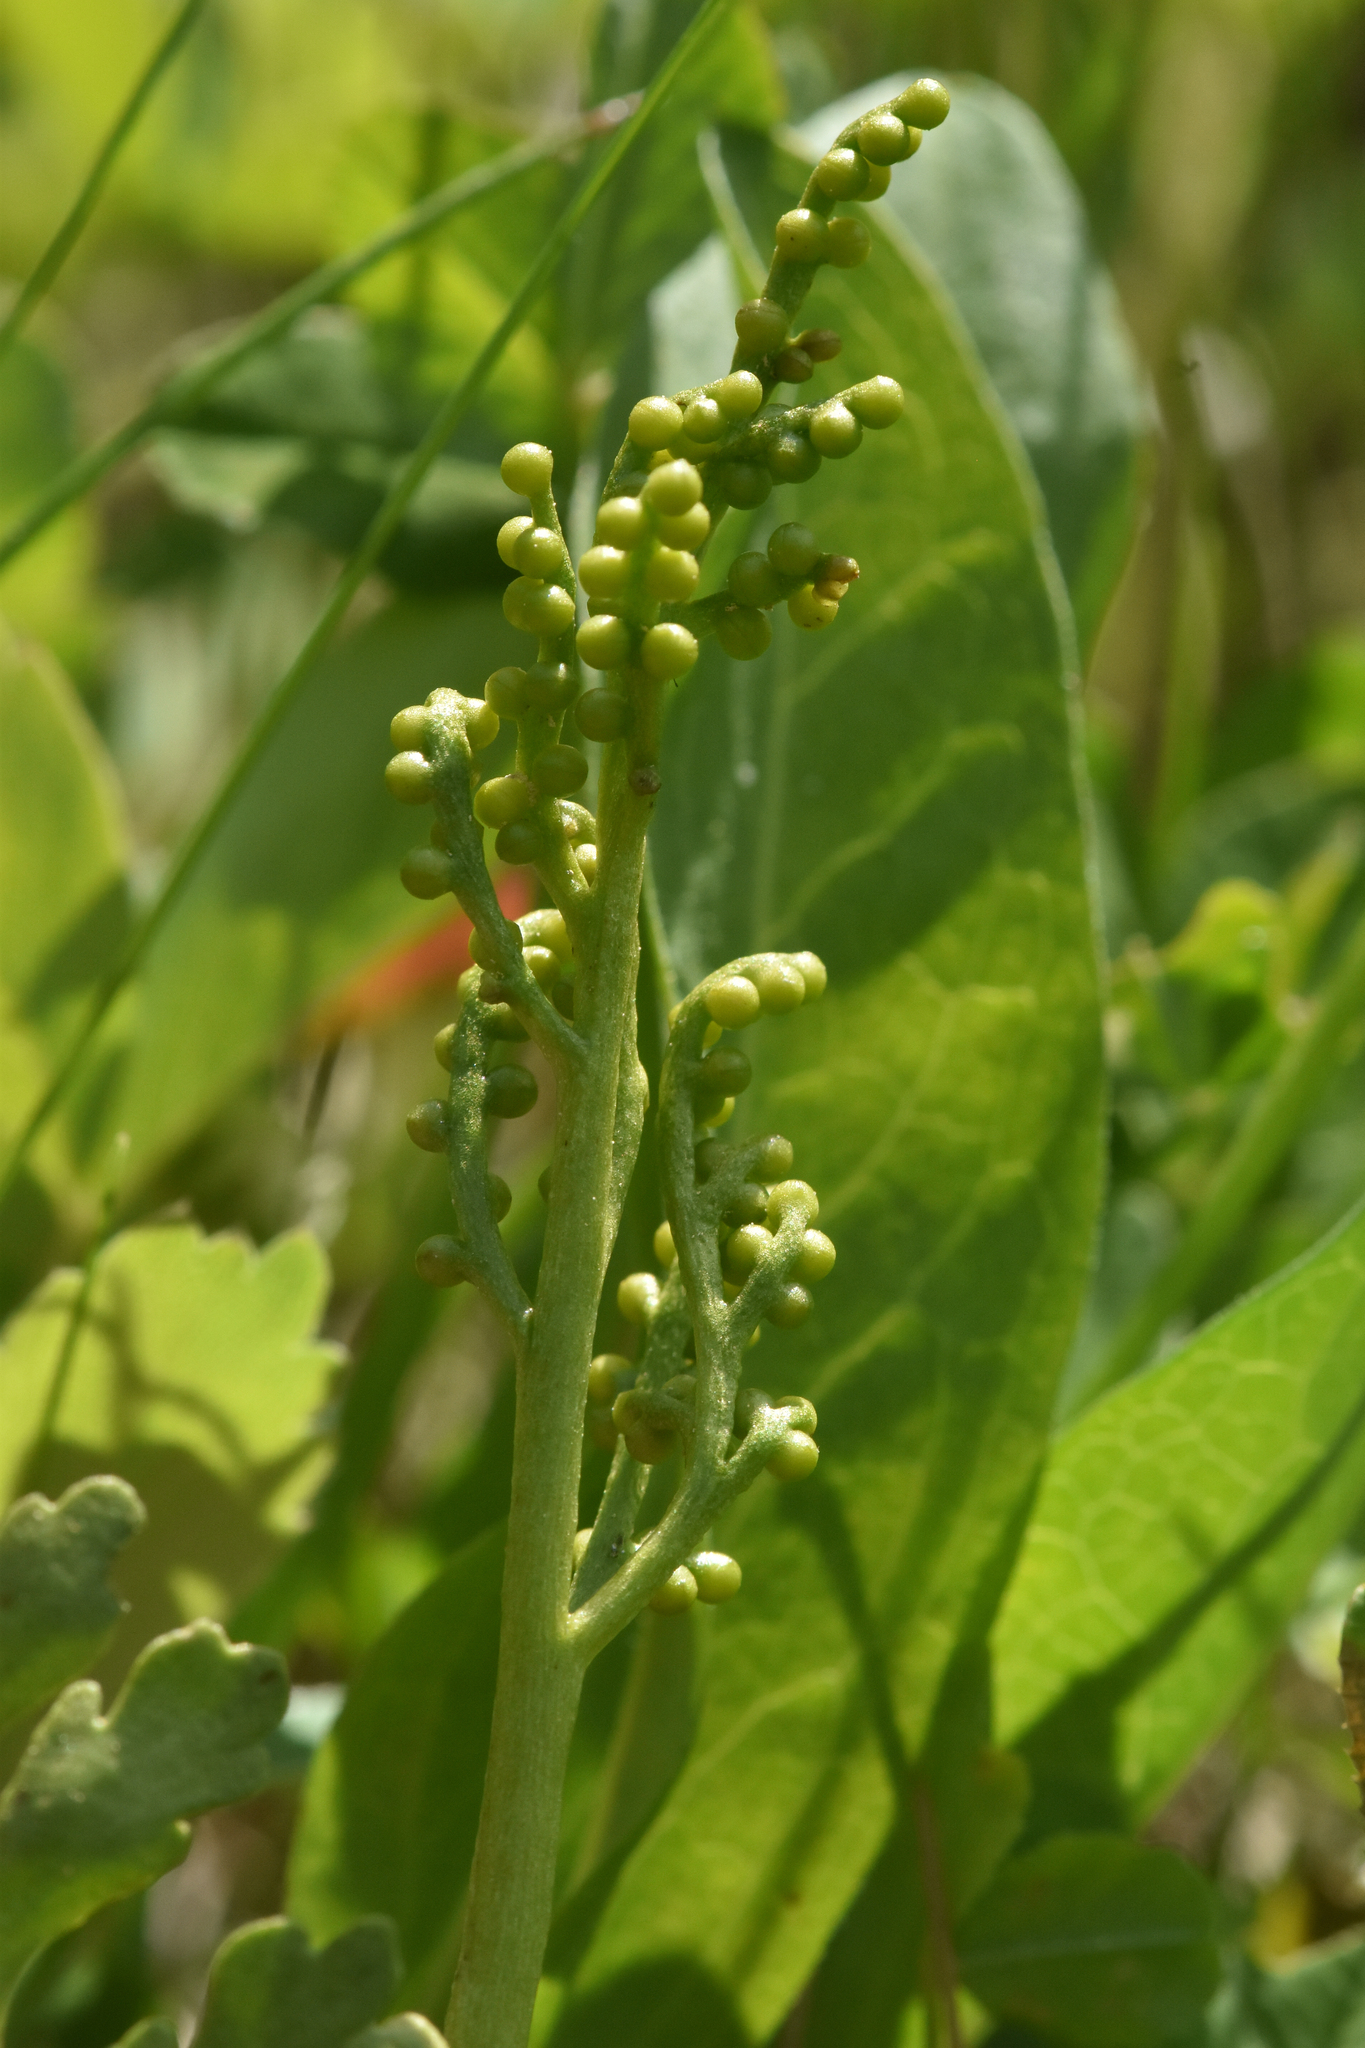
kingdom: Plantae
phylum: Tracheophyta
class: Polypodiopsida
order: Ophioglossales
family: Ophioglossaceae
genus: Botrychium
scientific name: Botrychium pinnatum
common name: Northwestern moonwort
